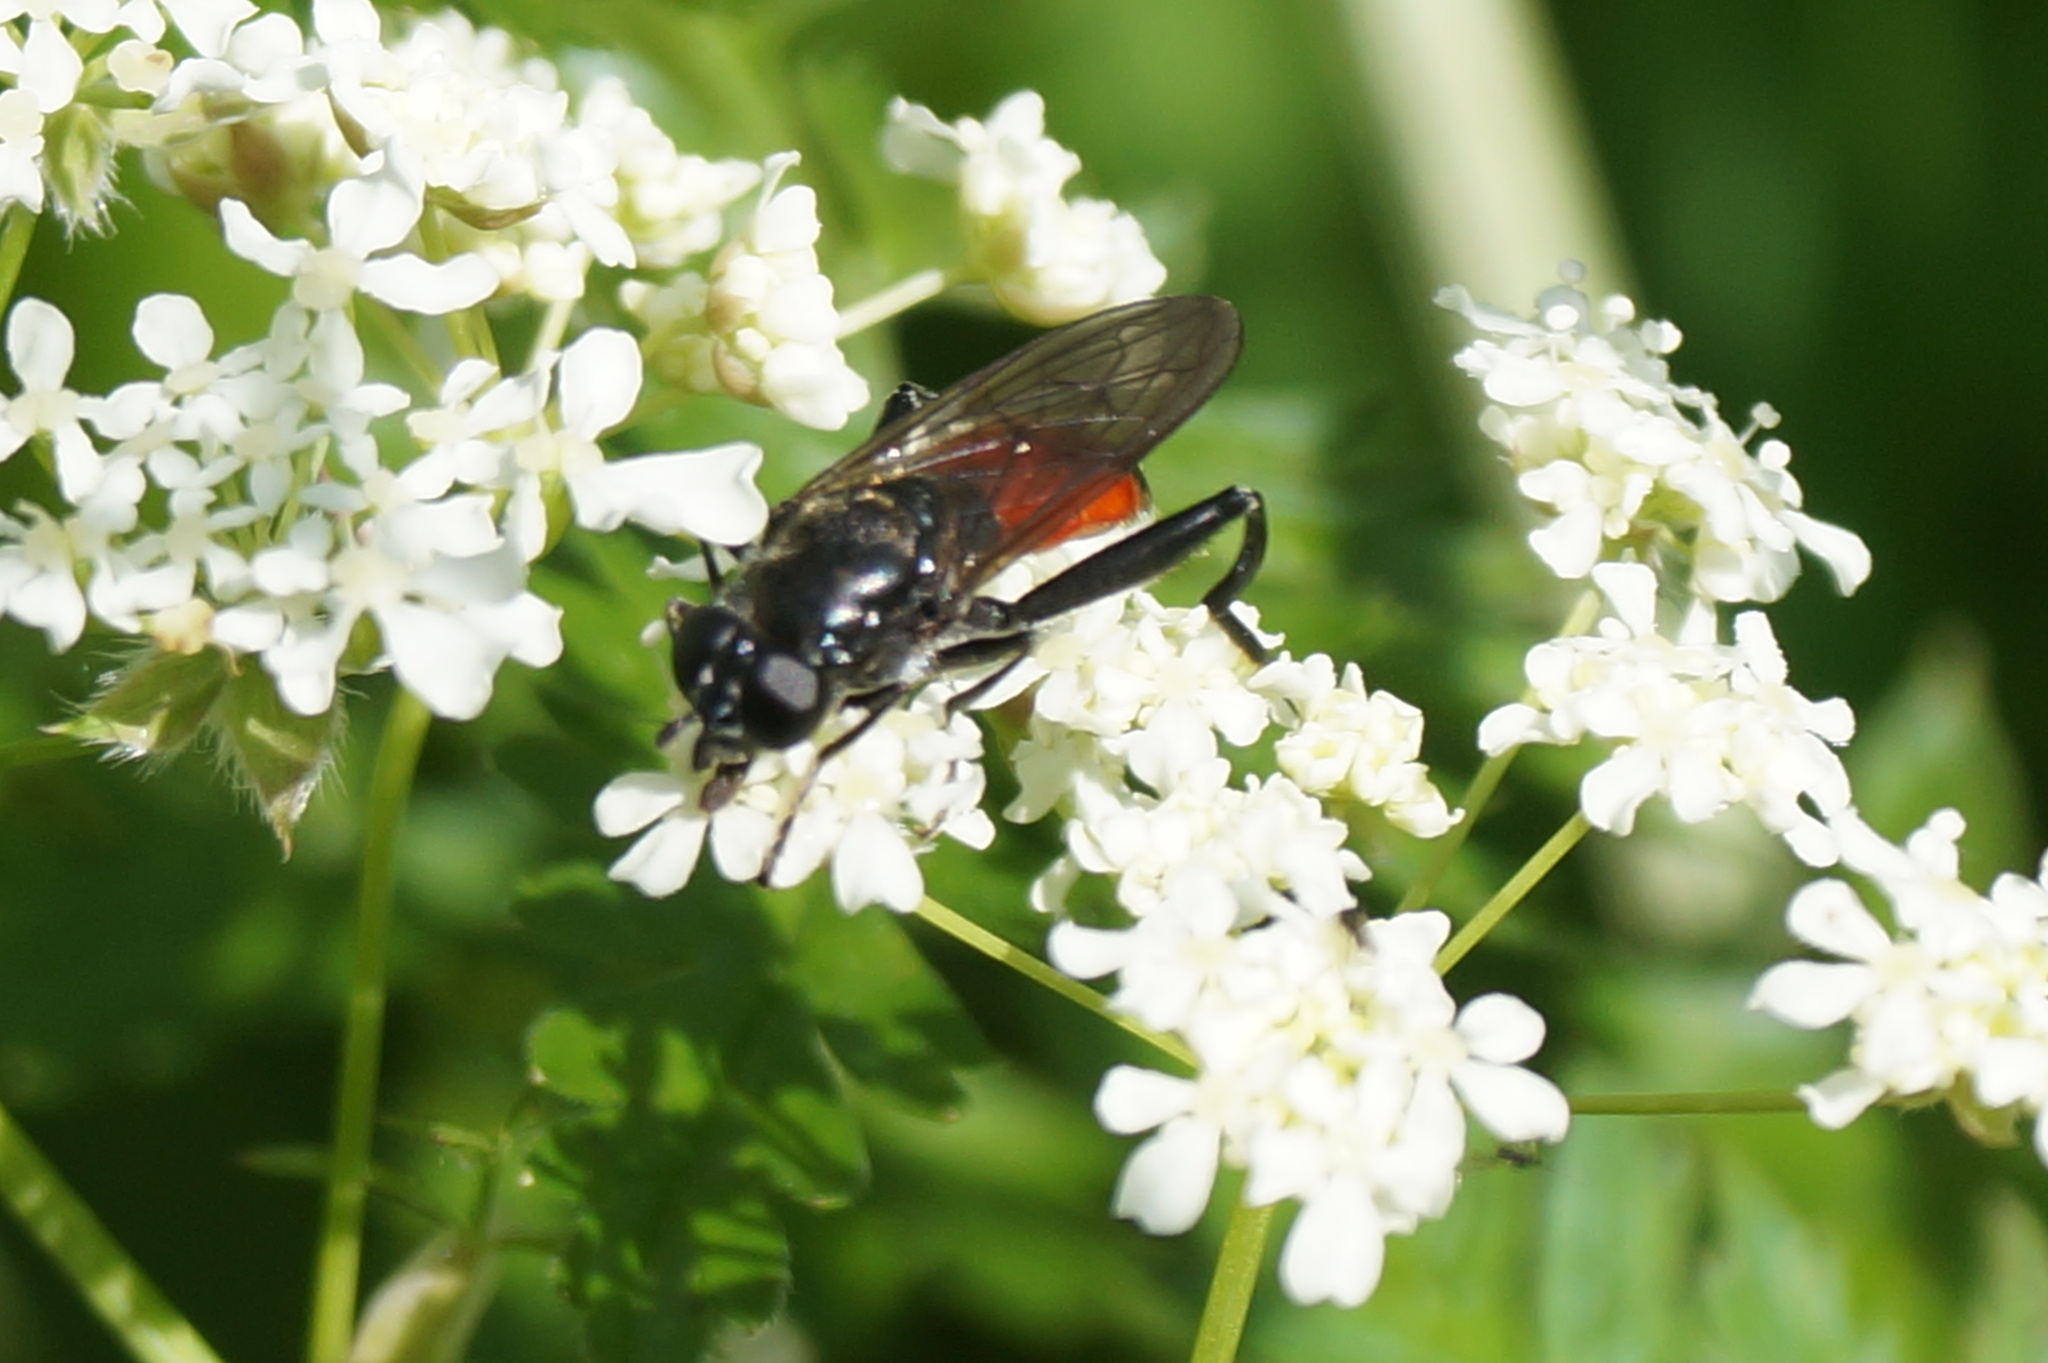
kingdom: Animalia
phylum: Arthropoda
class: Insecta
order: Diptera
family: Syrphidae
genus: Brachypalpoides
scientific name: Brachypalpoides lenta
